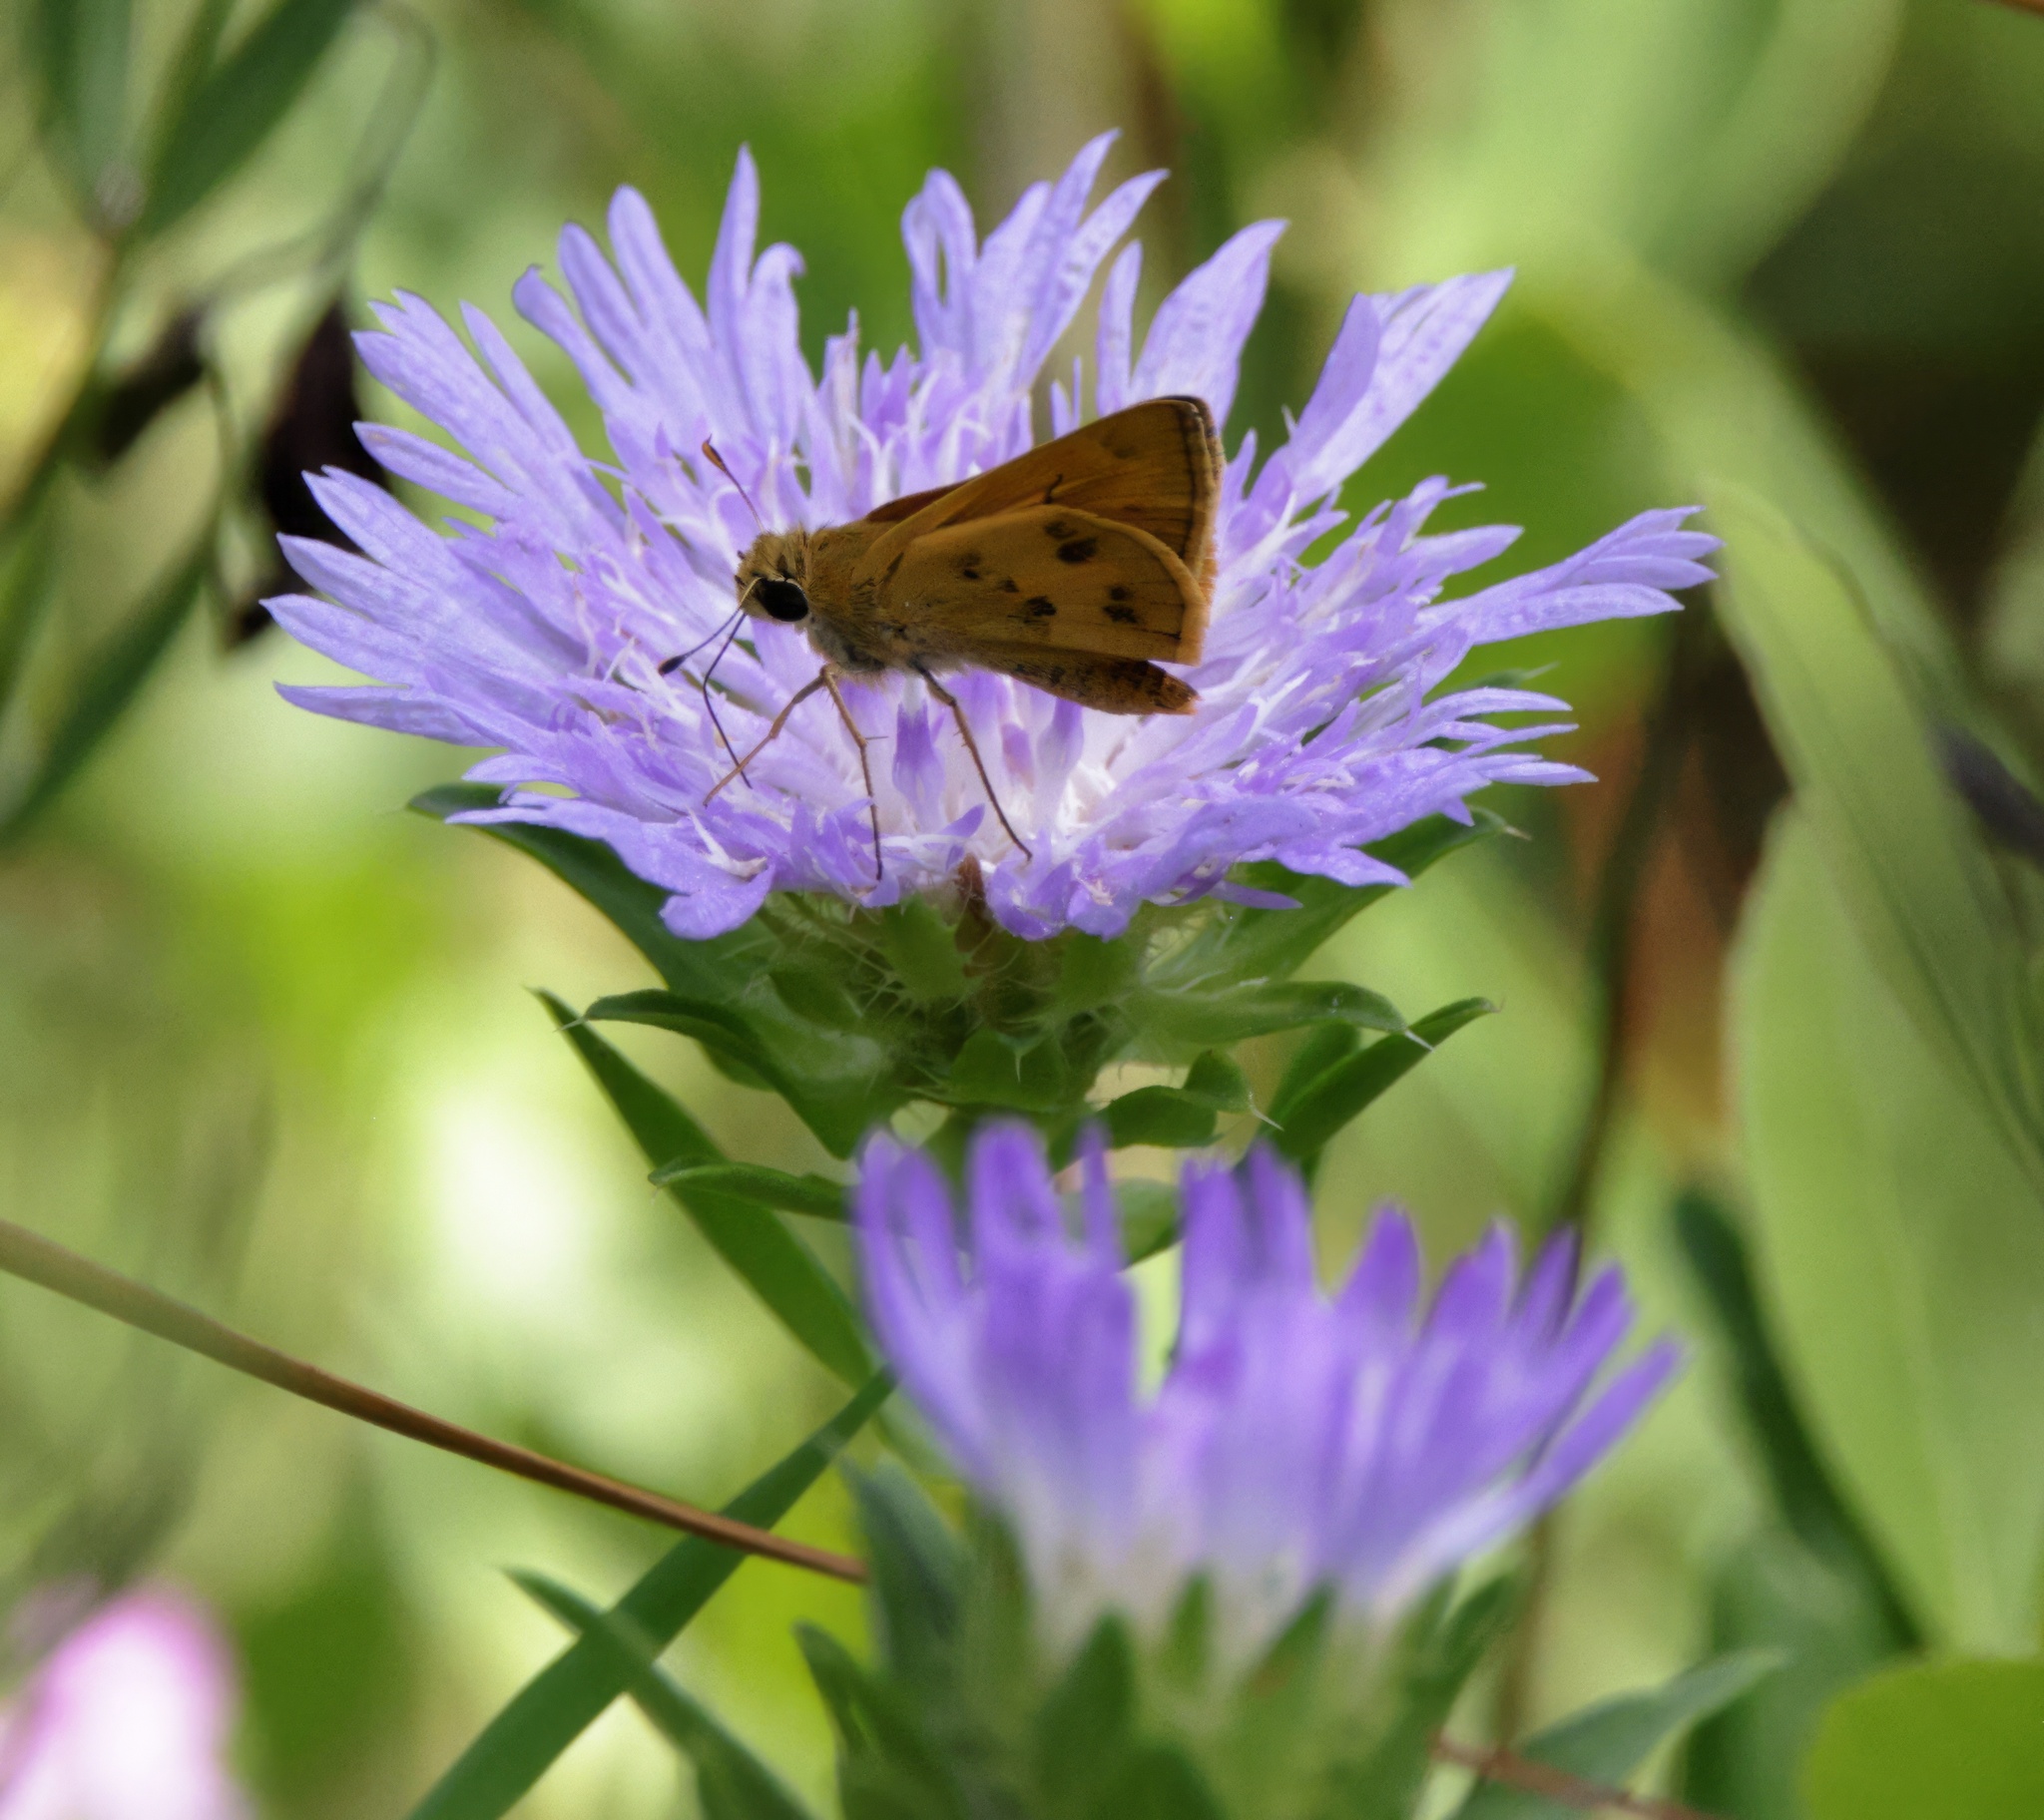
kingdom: Animalia
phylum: Arthropoda
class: Insecta
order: Lepidoptera
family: Hesperiidae
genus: Polites
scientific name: Polites vibex
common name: Whirlabout
